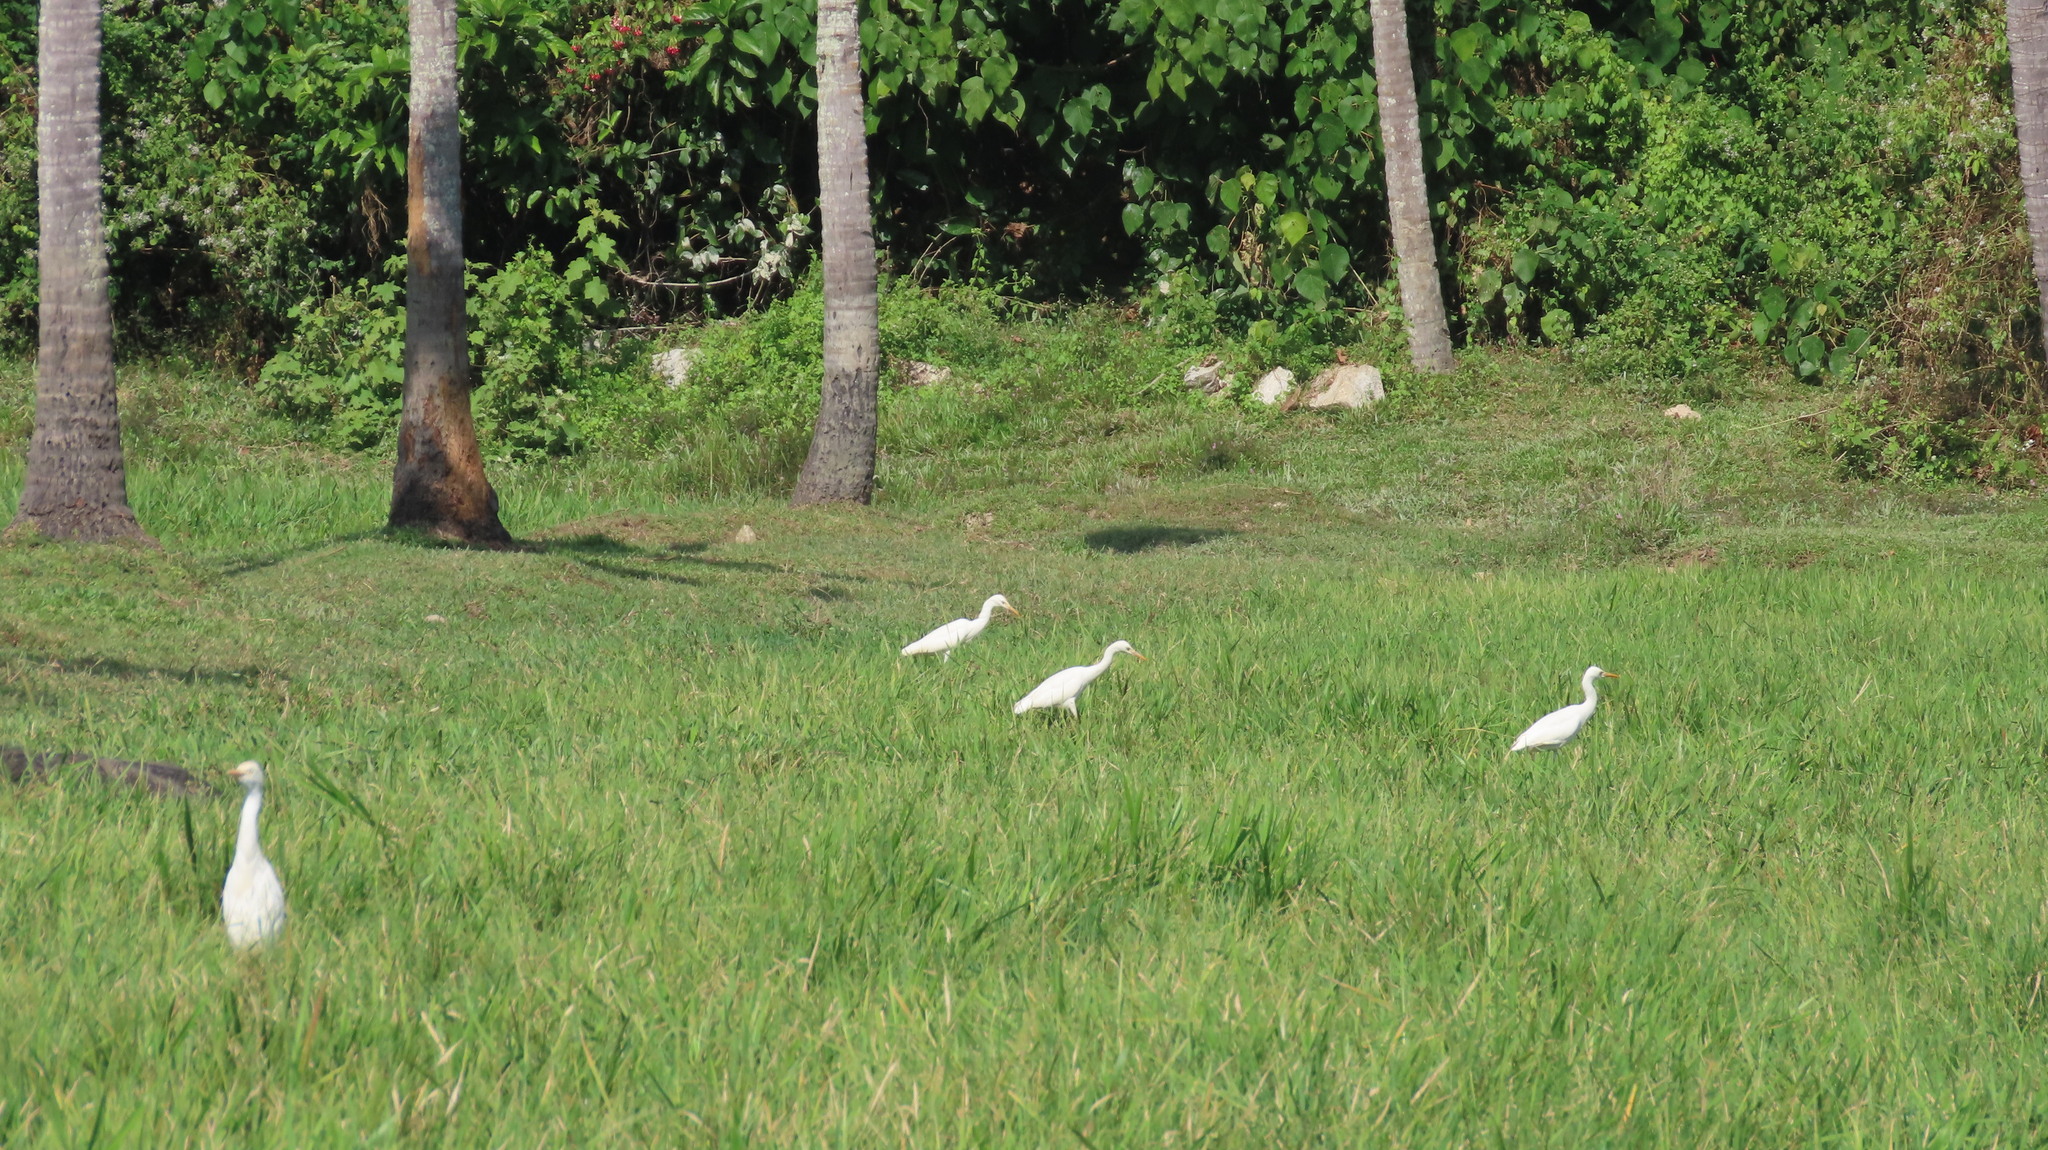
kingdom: Animalia
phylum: Chordata
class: Aves
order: Pelecaniformes
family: Ardeidae
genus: Bubulcus
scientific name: Bubulcus coromandus
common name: Eastern cattle egret
